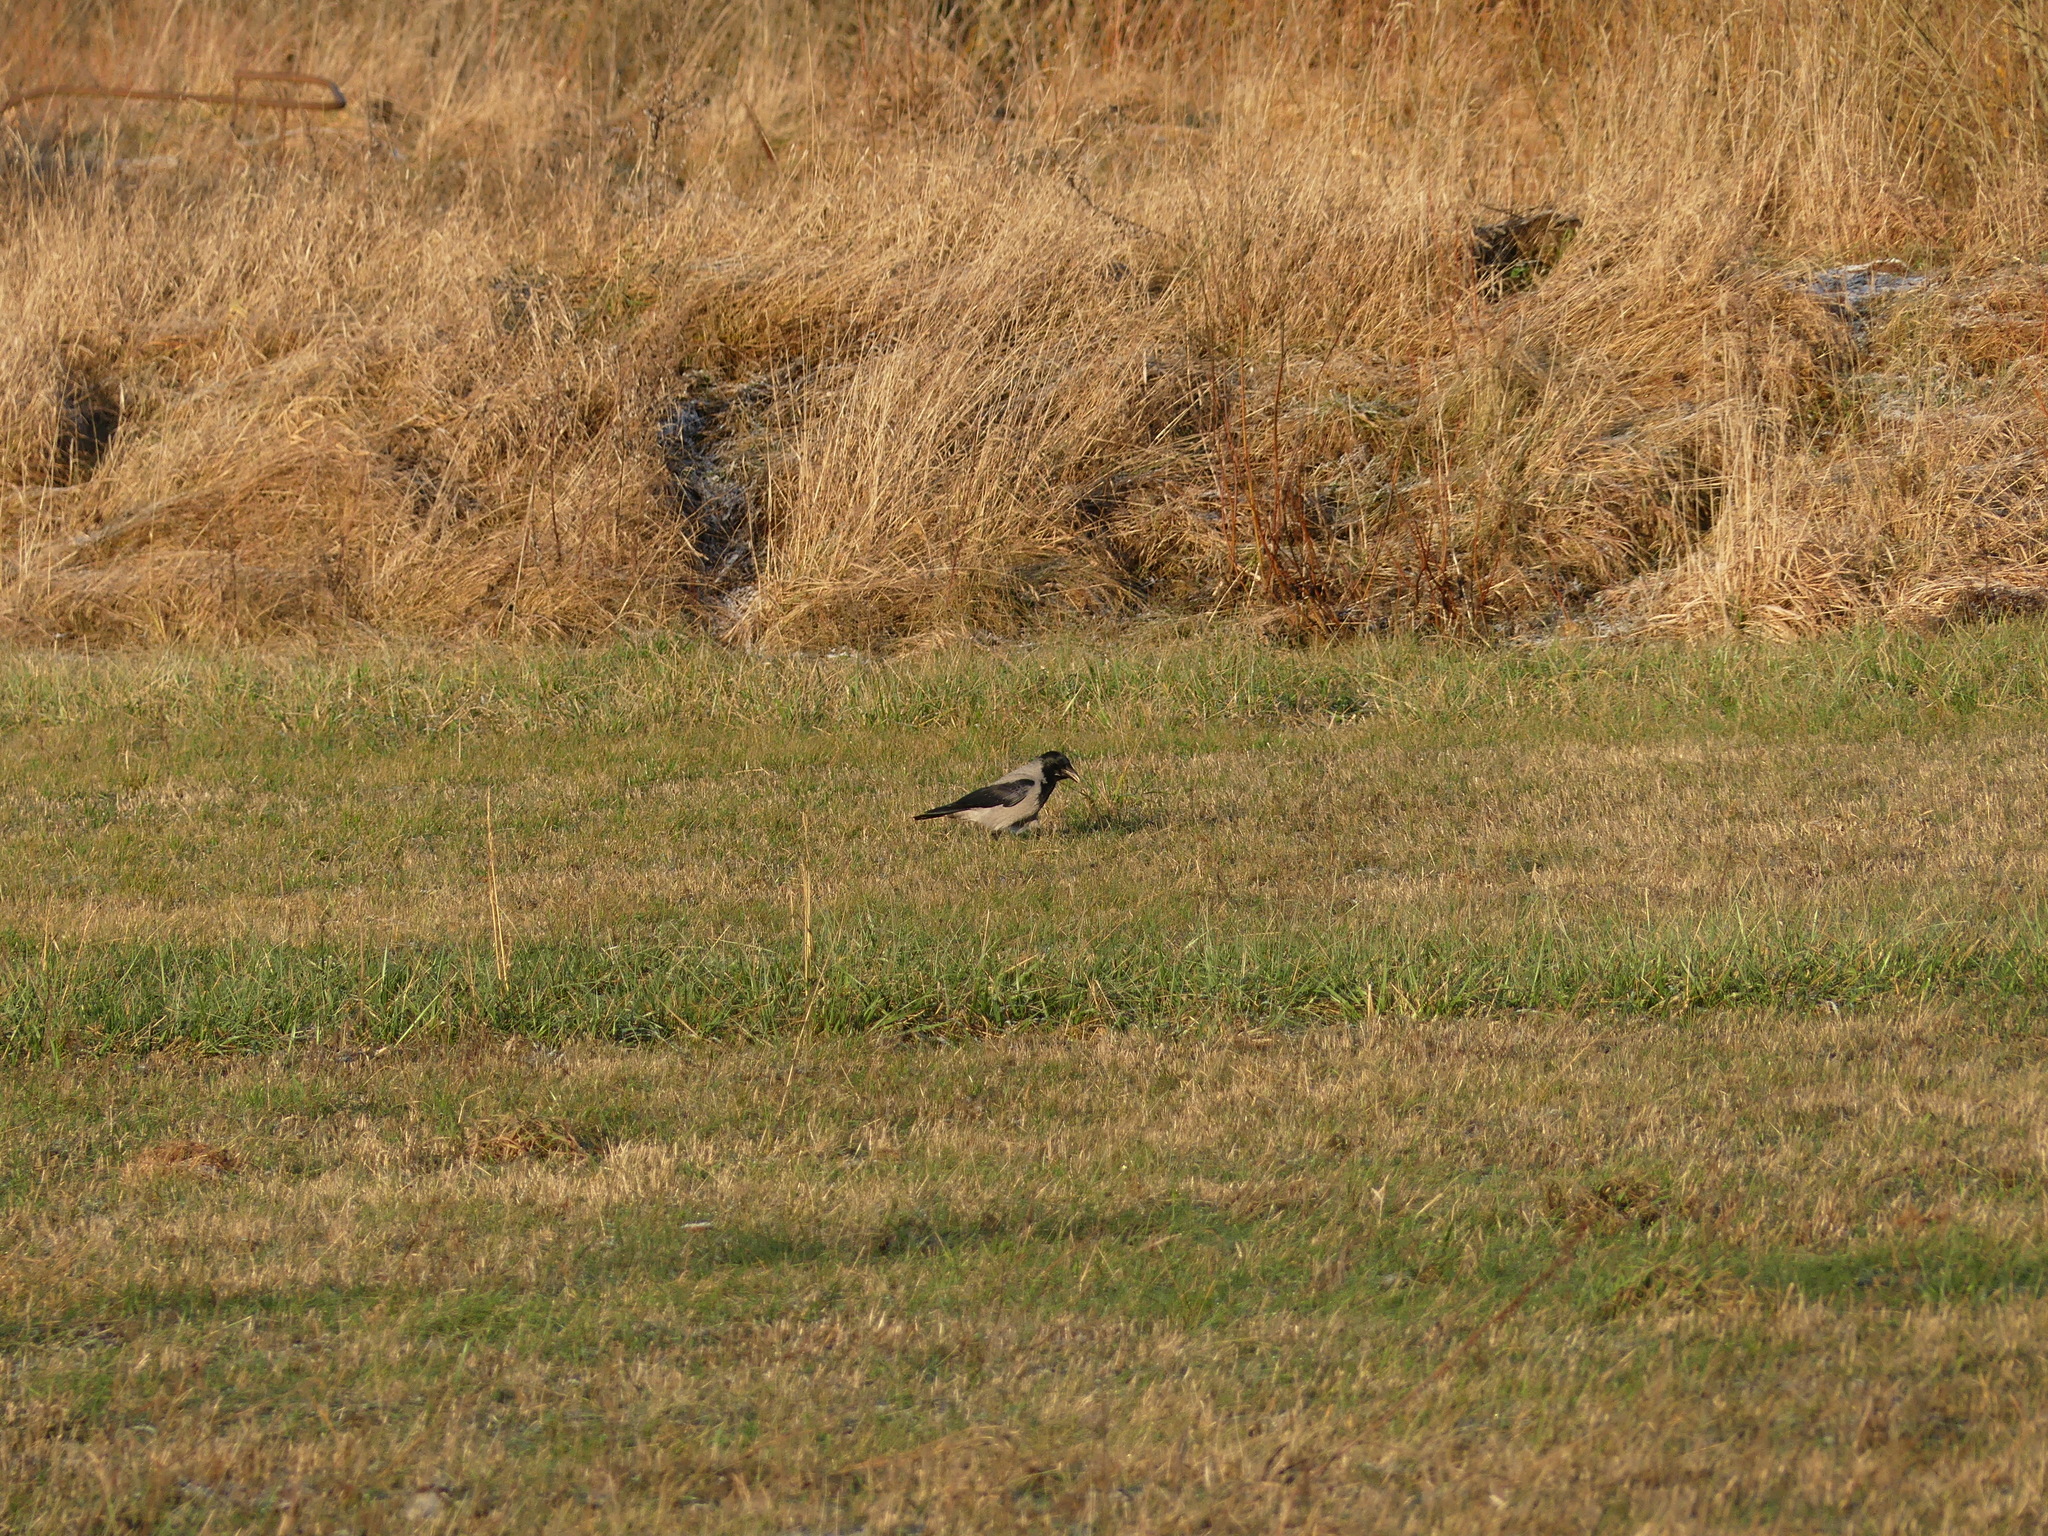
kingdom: Animalia
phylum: Chordata
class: Aves
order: Passeriformes
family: Corvidae
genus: Corvus
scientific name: Corvus cornix
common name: Hooded crow
